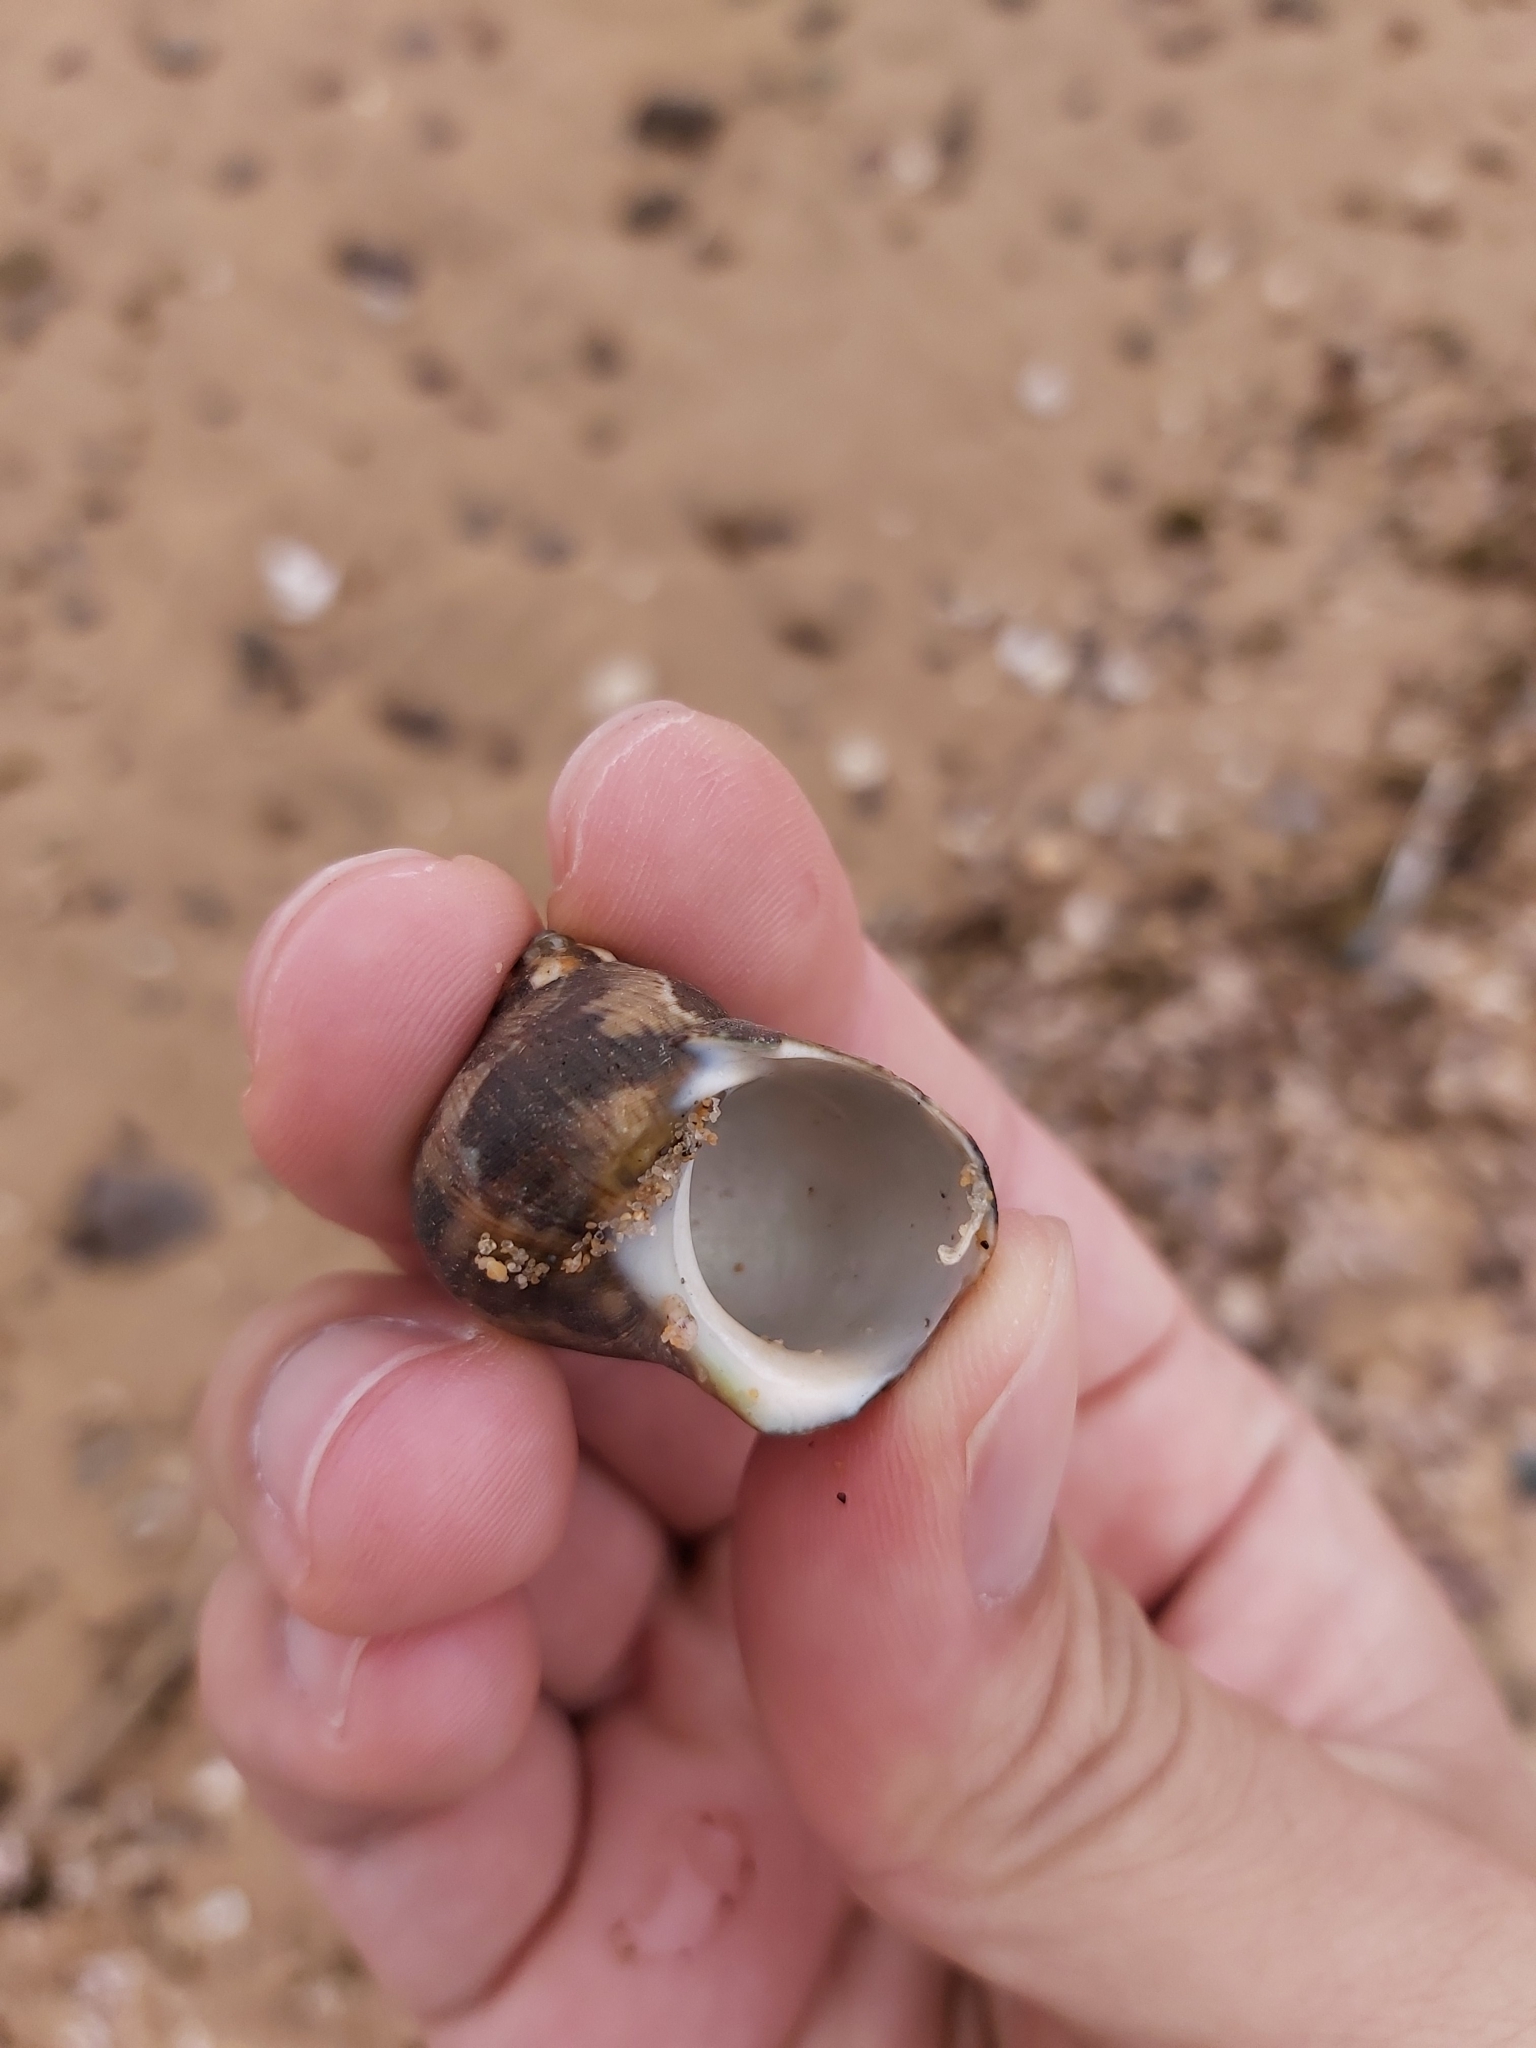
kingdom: Animalia
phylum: Mollusca
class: Gastropoda
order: Trochida
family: Turbinidae
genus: Turbo
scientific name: Turbo militaris
